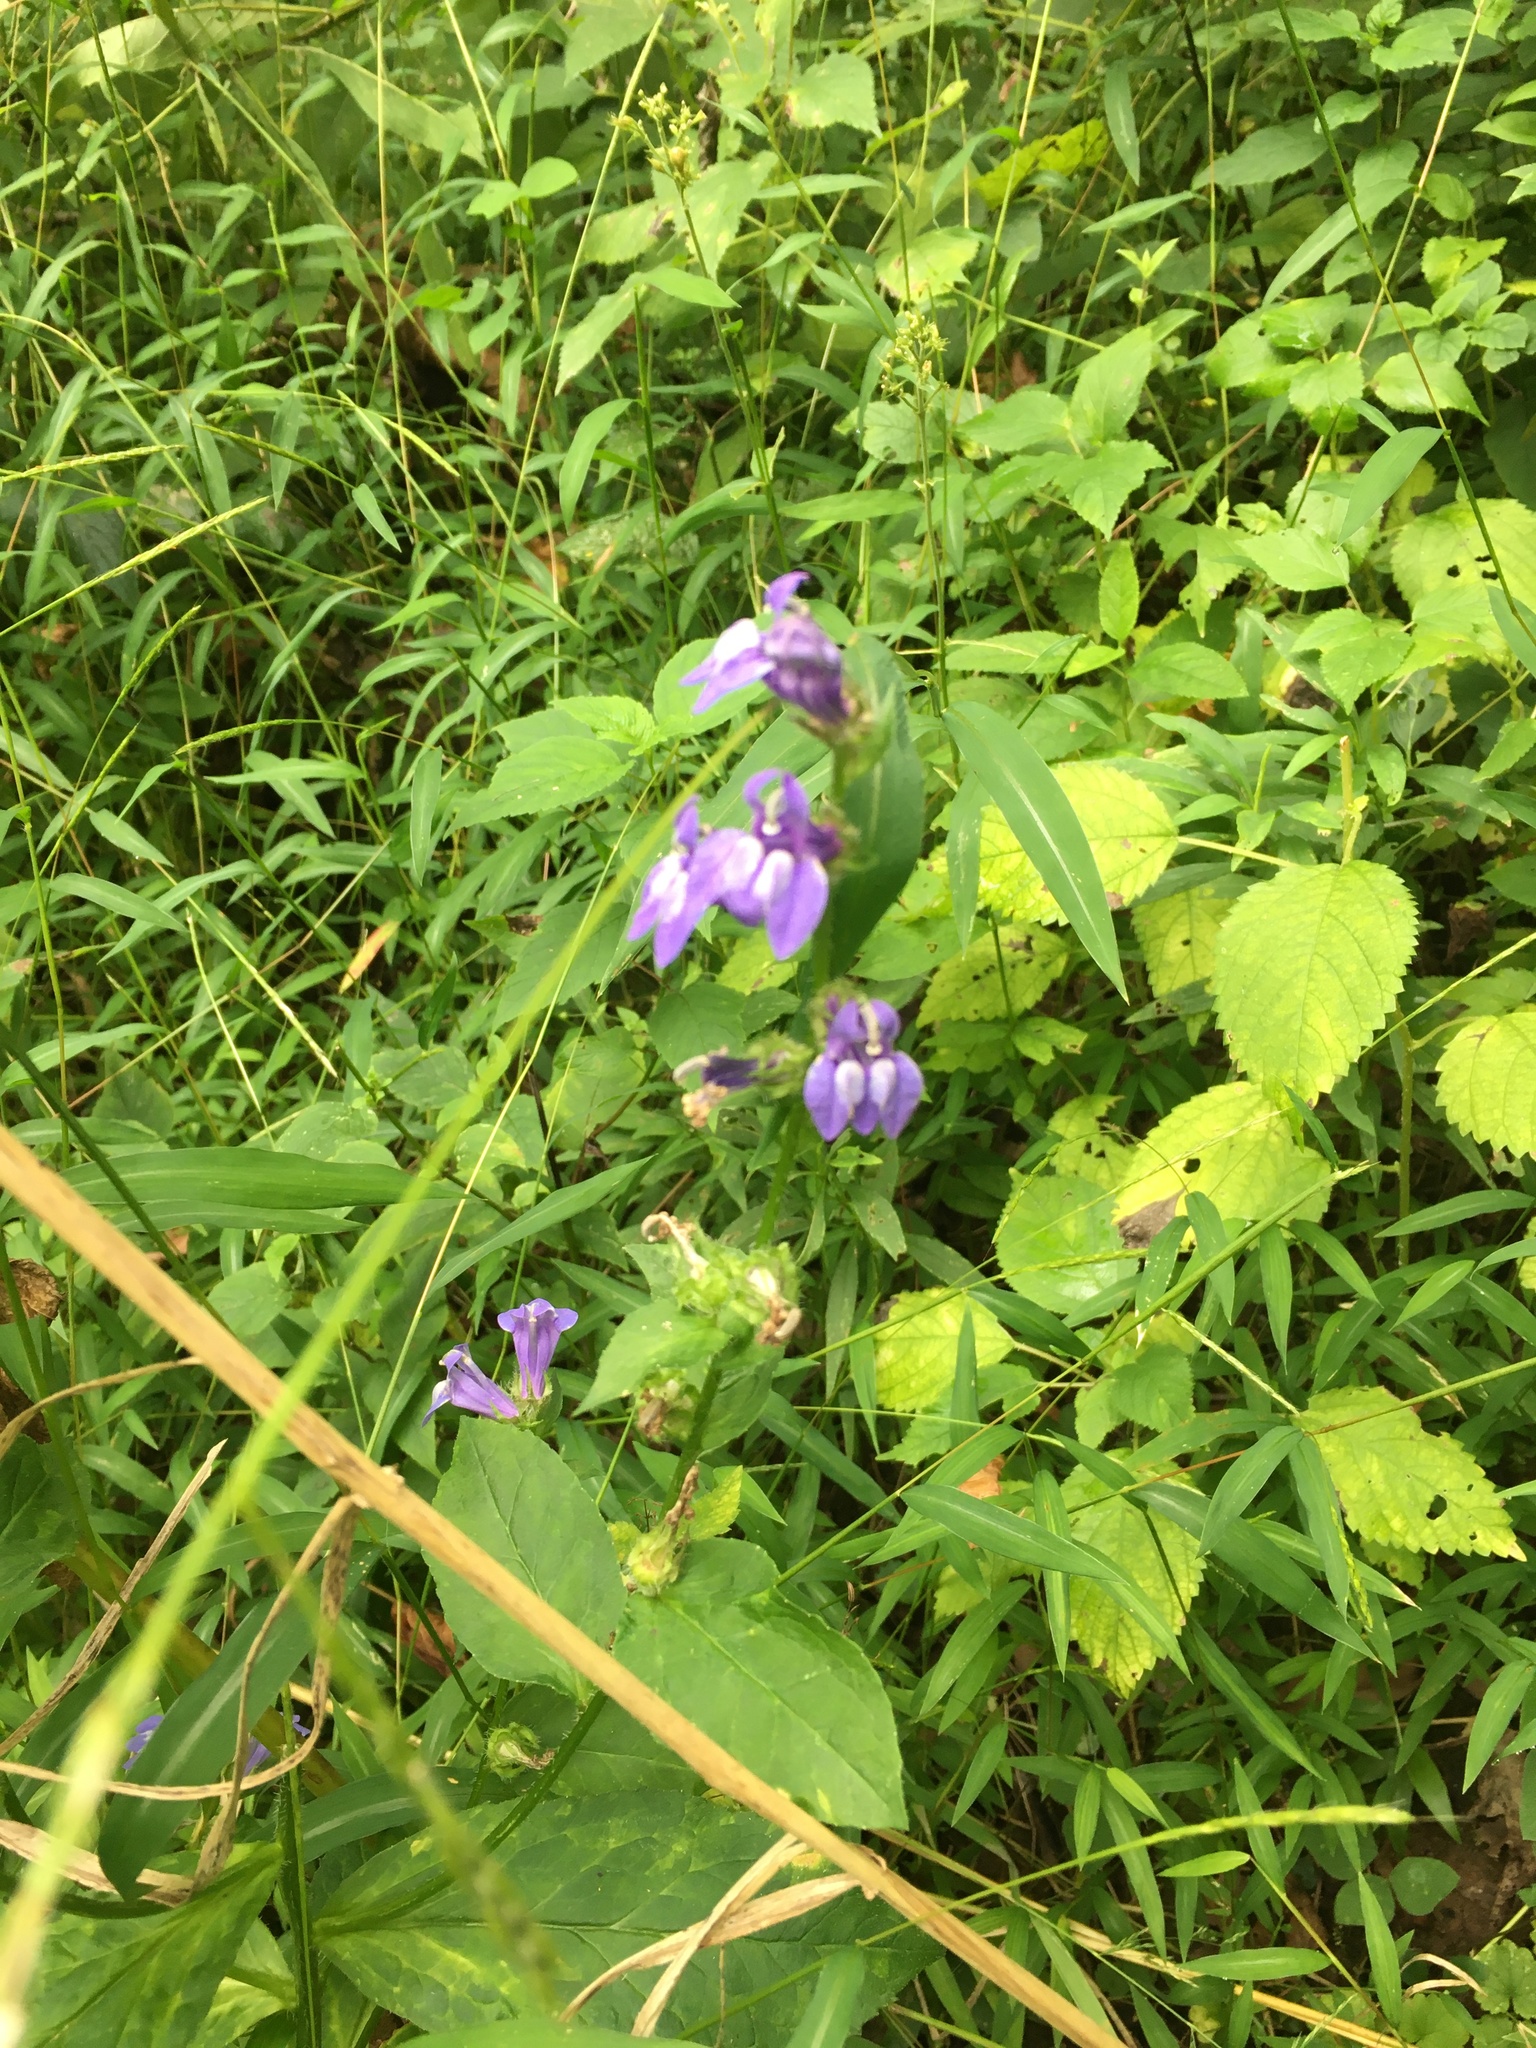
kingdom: Plantae
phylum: Tracheophyta
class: Magnoliopsida
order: Asterales
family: Campanulaceae
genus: Lobelia
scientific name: Lobelia siphilitica
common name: Great lobelia
